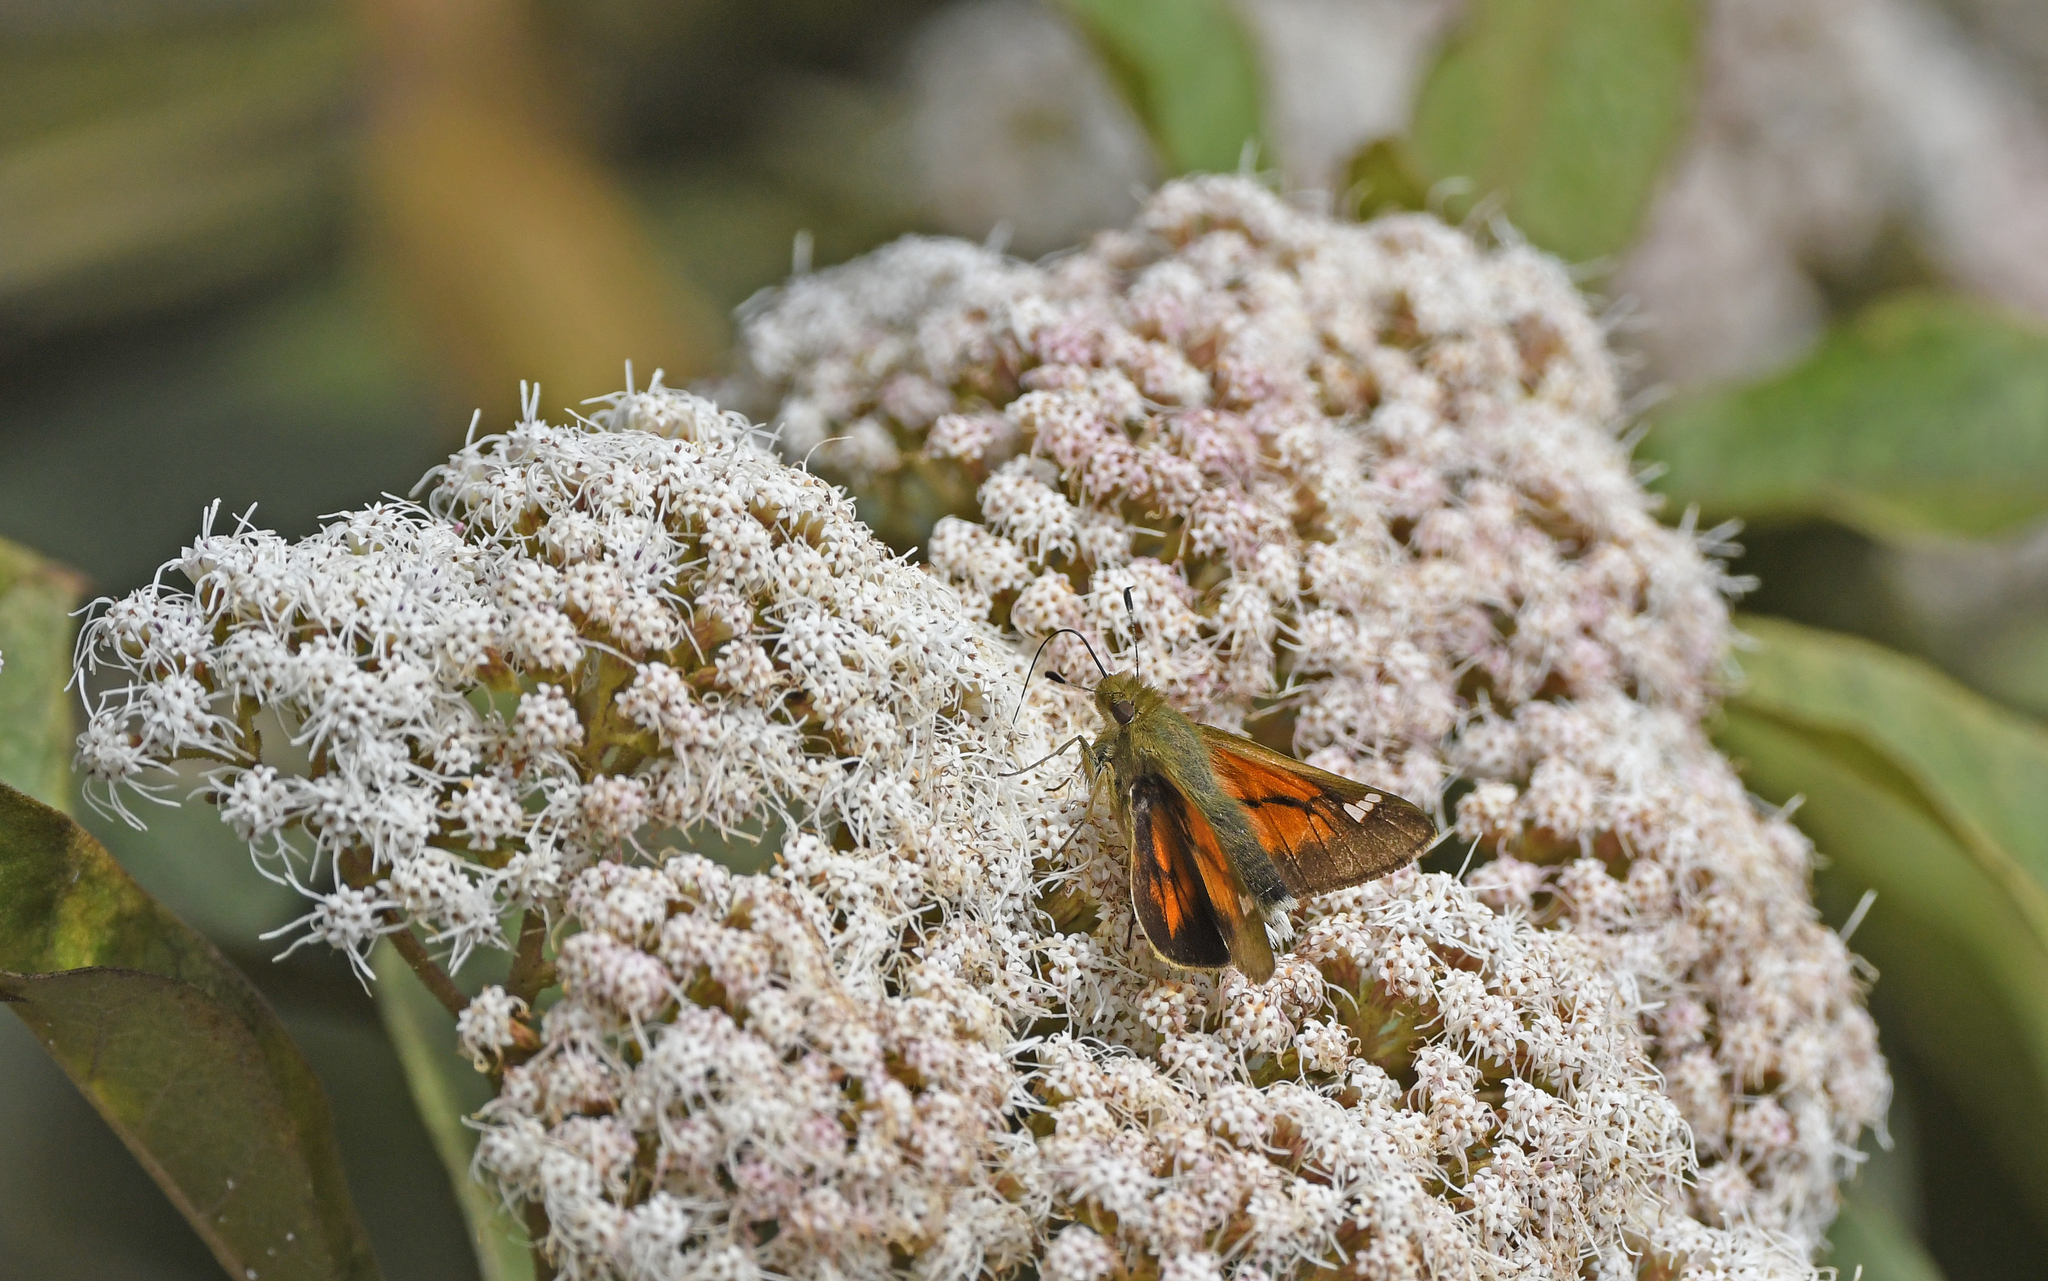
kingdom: Animalia
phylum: Arthropoda
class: Insecta
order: Lepidoptera
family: Hesperiidae
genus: Serdis
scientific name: Serdis viridicans
